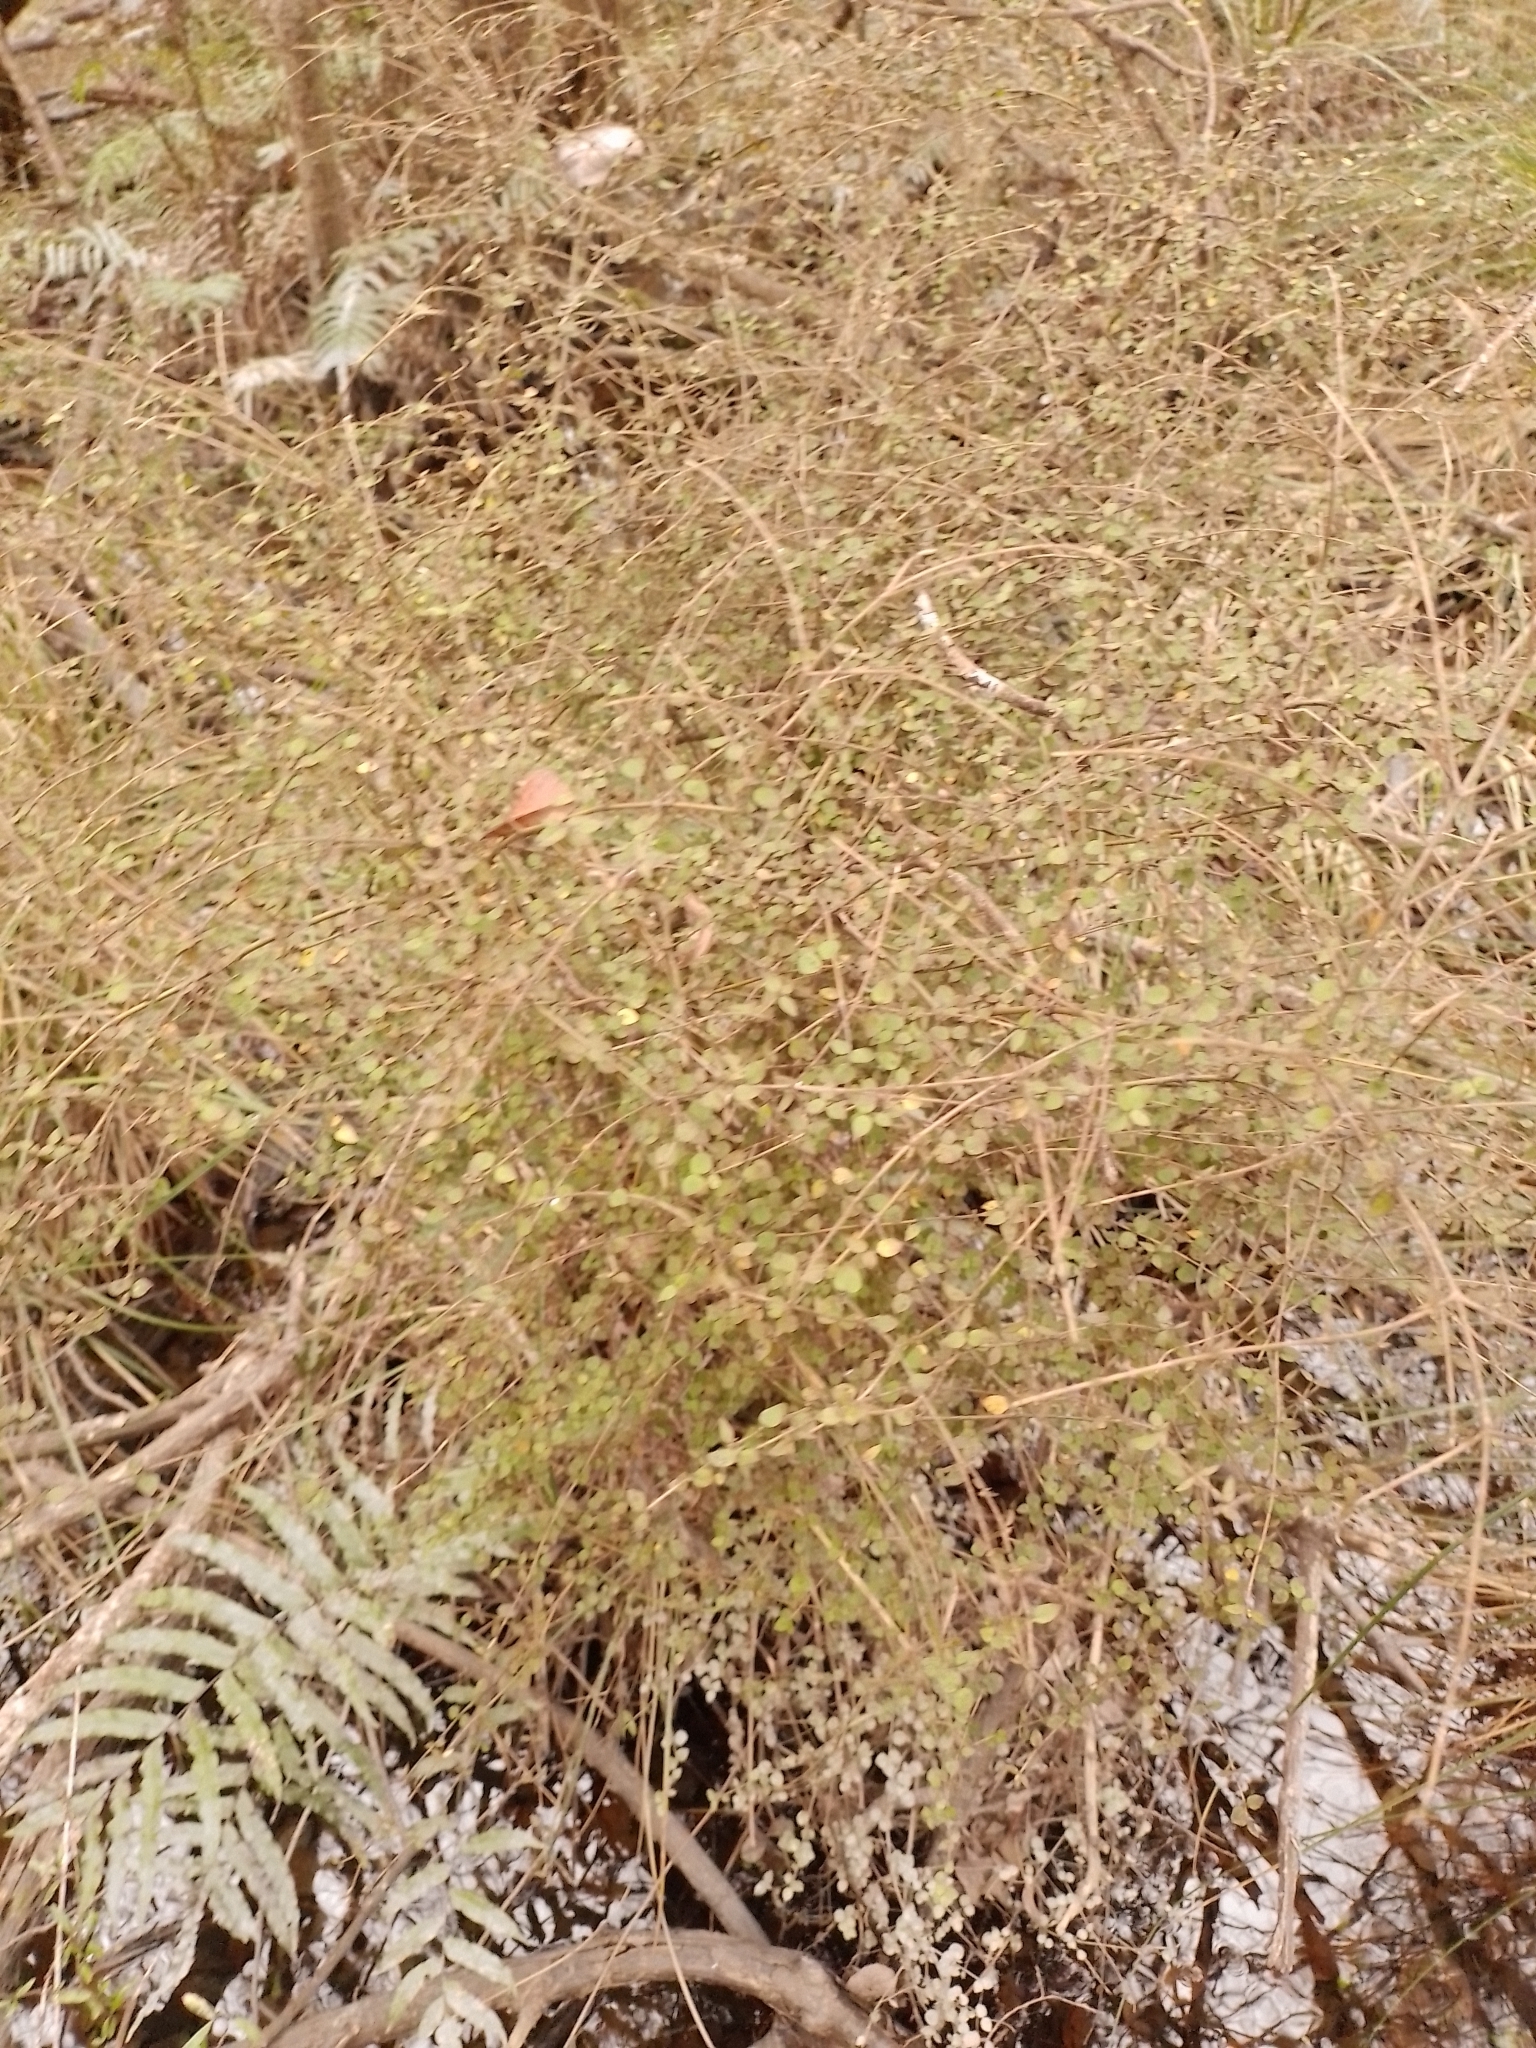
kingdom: Plantae
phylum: Tracheophyta
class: Magnoliopsida
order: Gentianales
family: Rubiaceae
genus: Coprosma
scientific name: Coprosma rhamnoides
